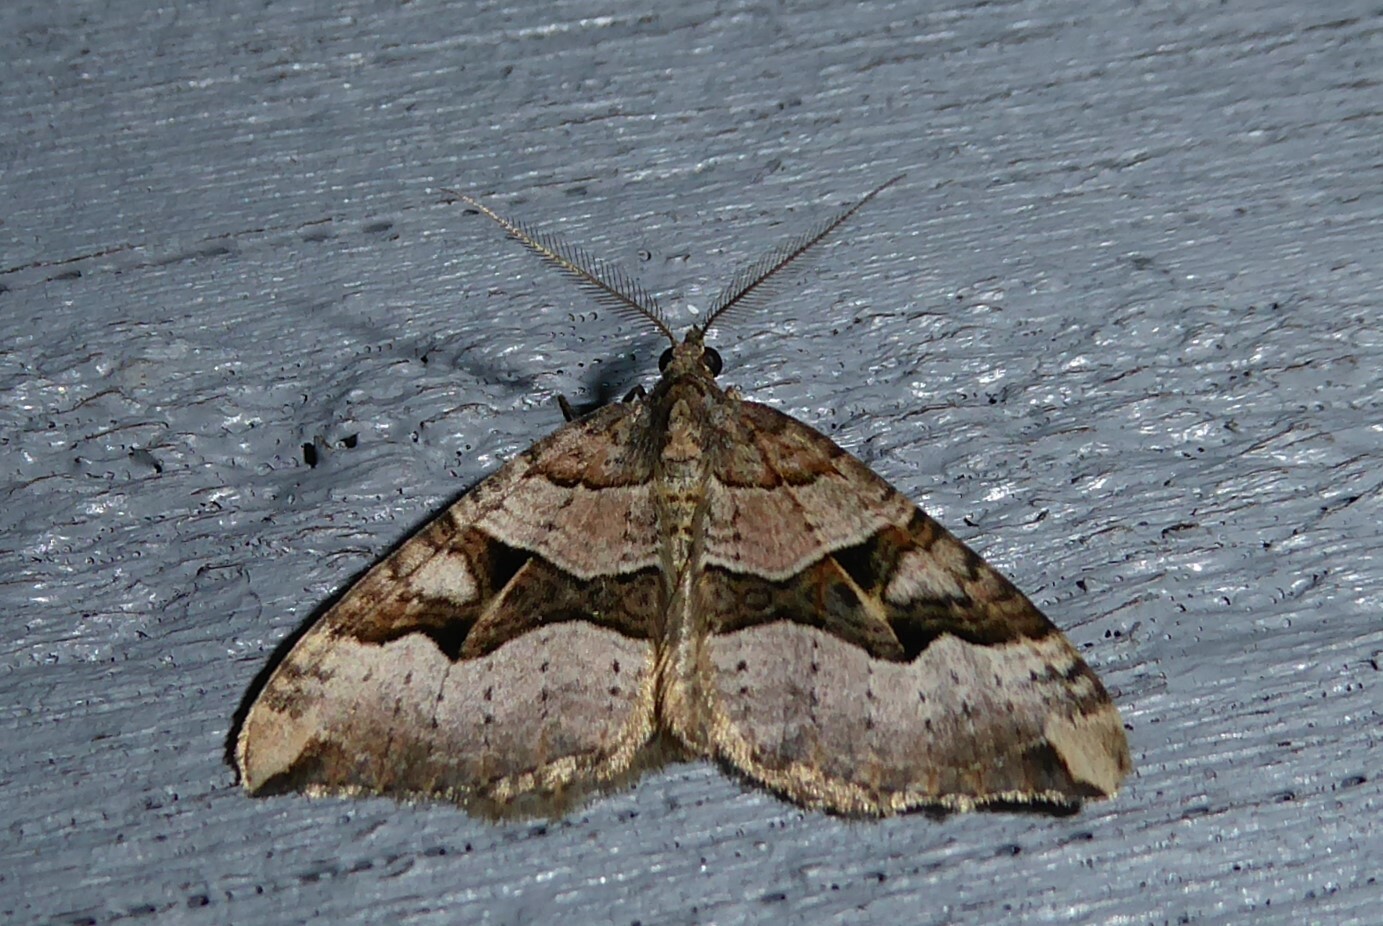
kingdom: Animalia
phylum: Arthropoda
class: Insecta
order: Lepidoptera
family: Geometridae
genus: Xanthorhoe
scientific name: Xanthorhoe semifissata
